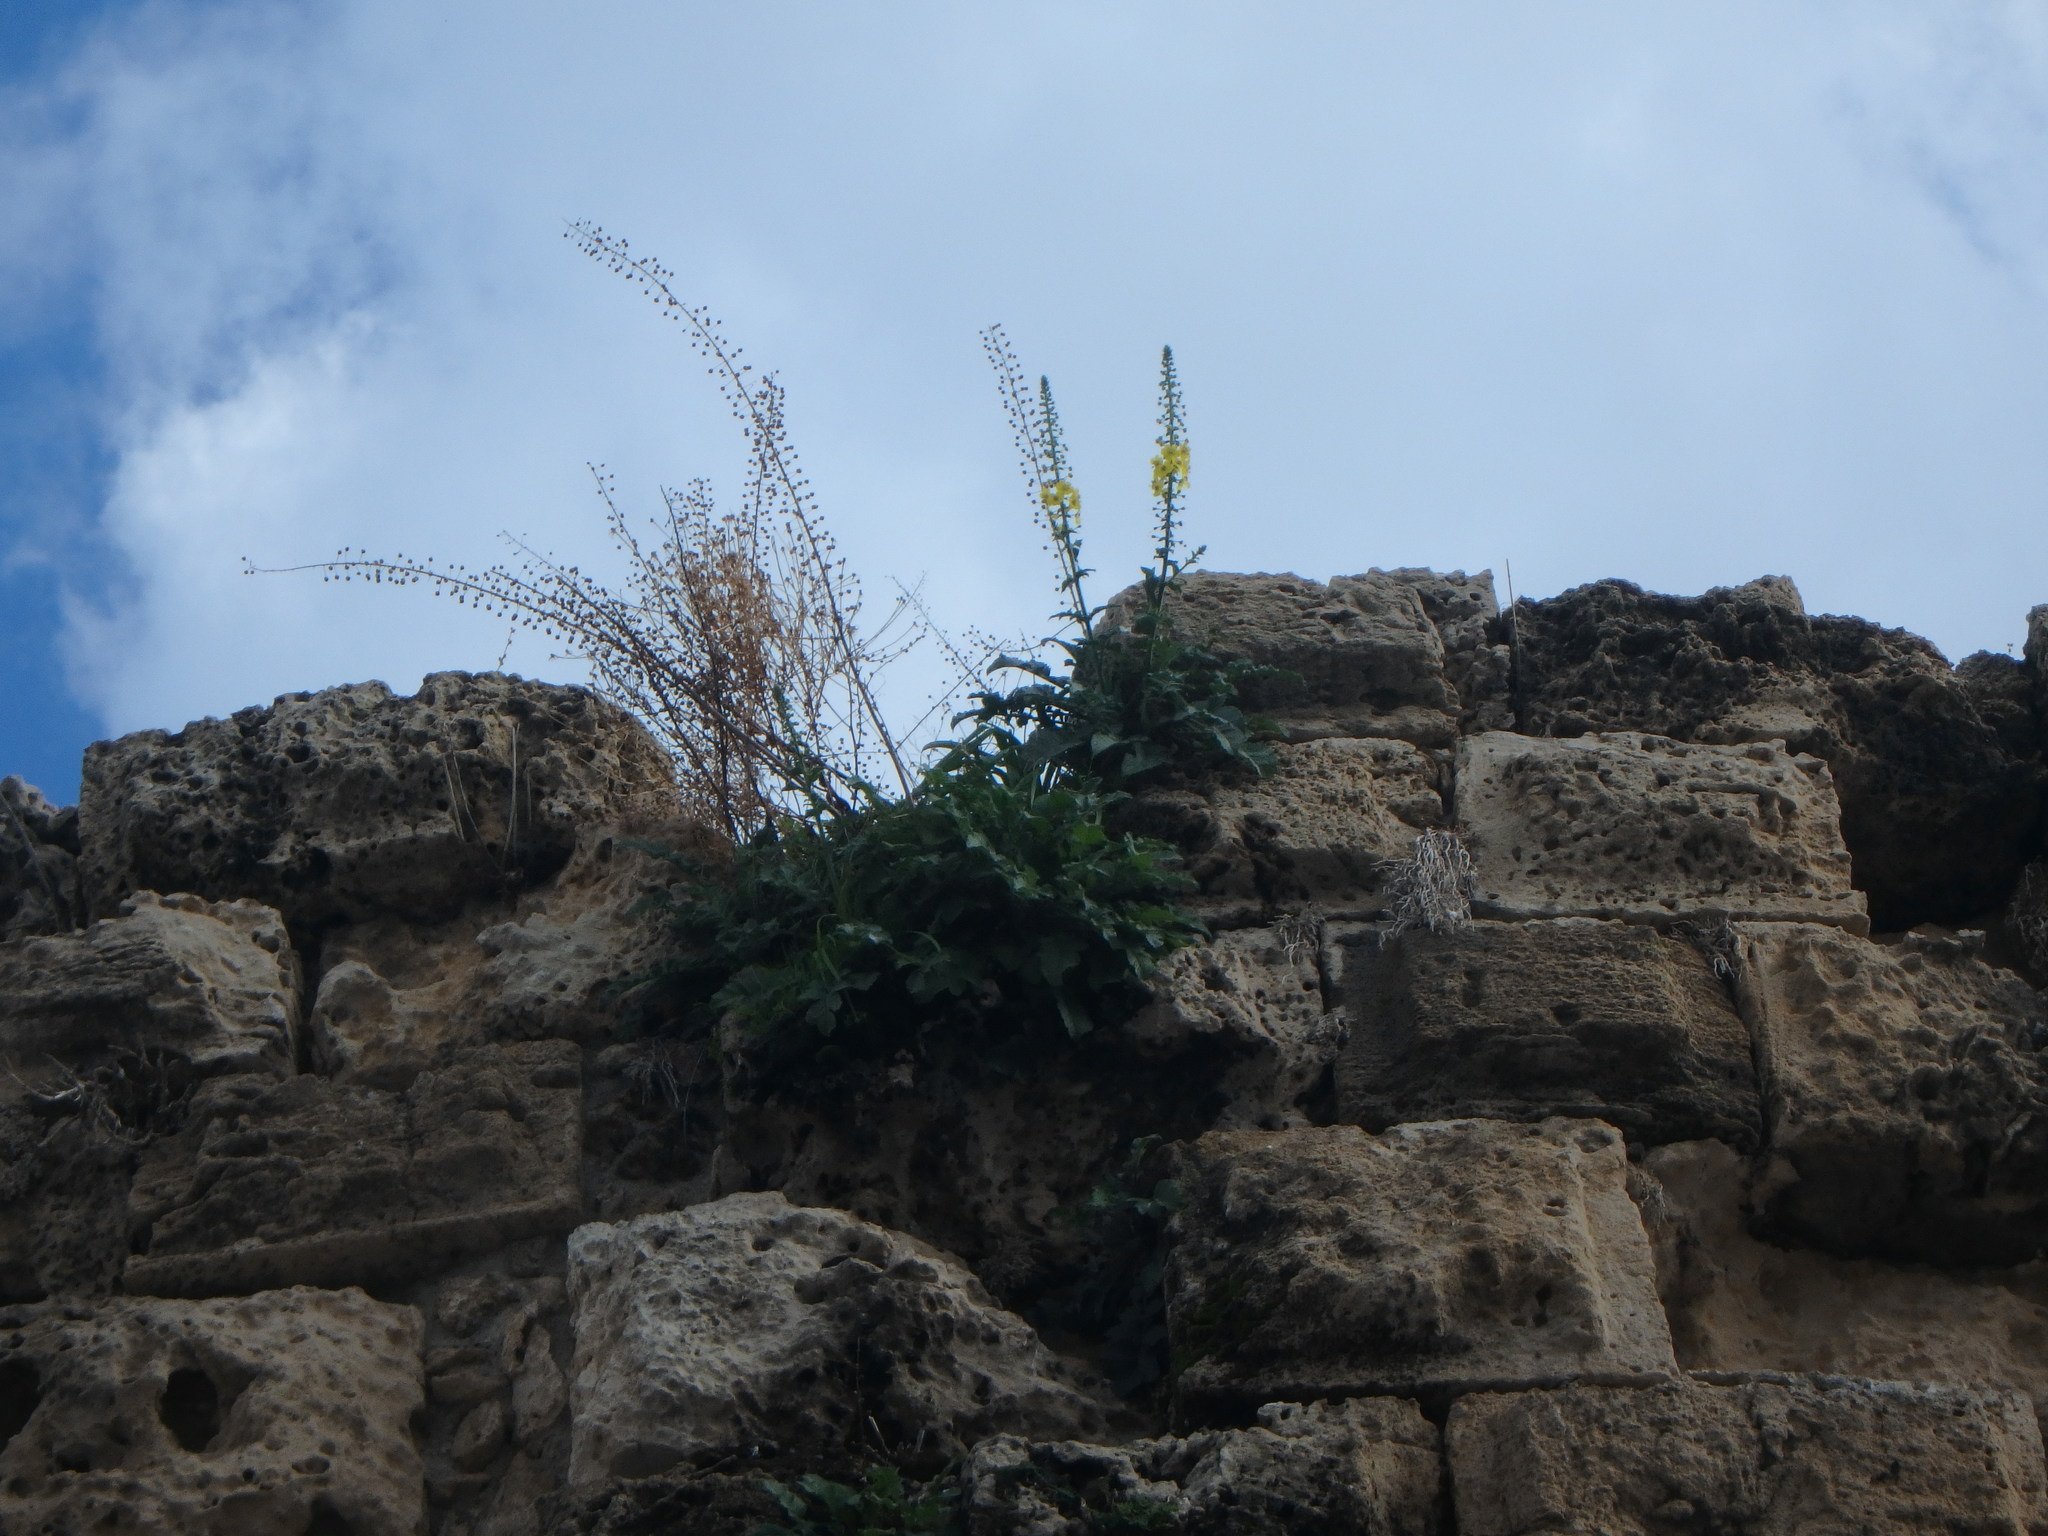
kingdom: Plantae
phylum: Tracheophyta
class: Magnoliopsida
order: Lamiales
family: Scrophulariaceae
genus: Verbascum
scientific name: Verbascum levanticum
